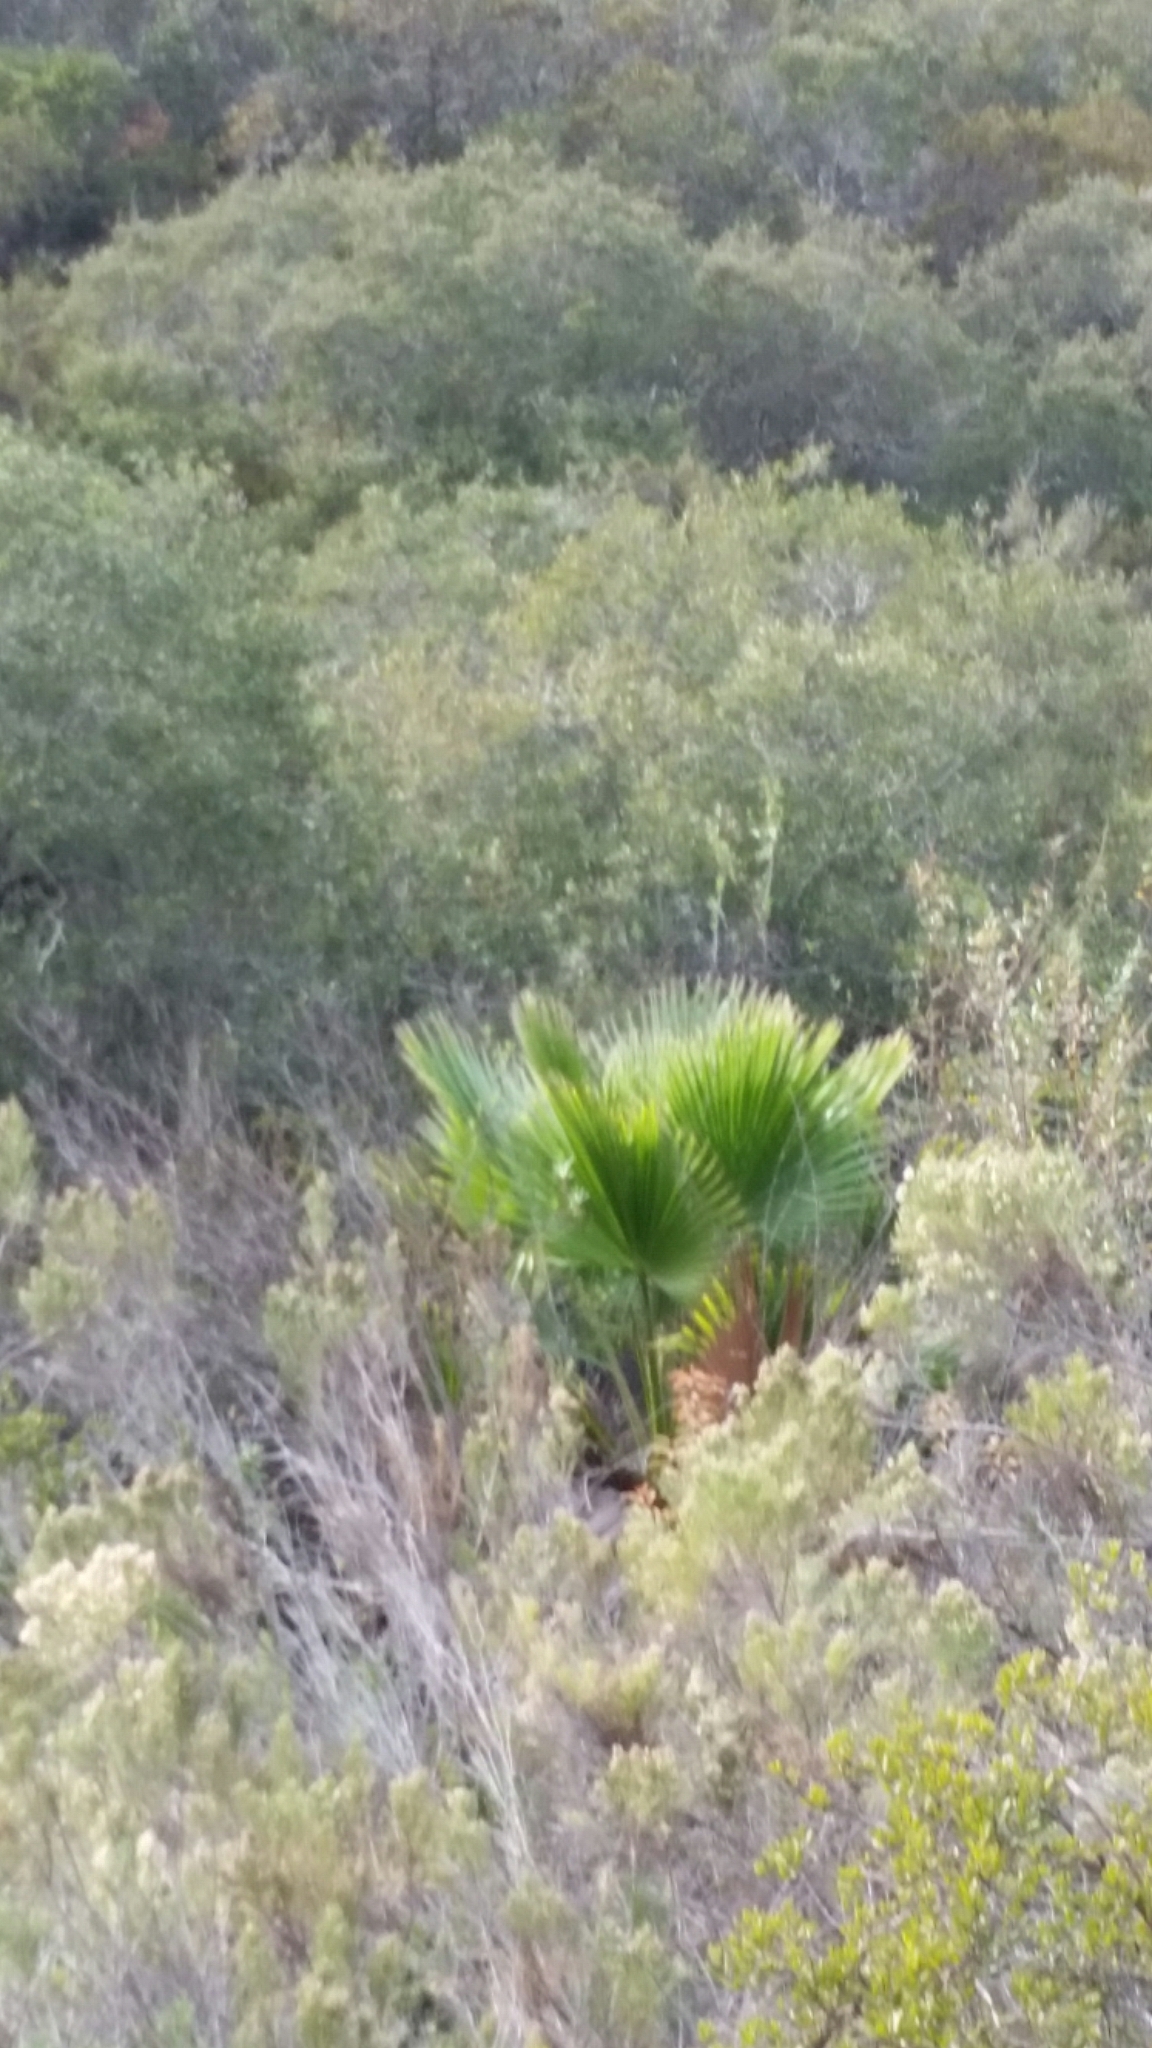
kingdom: Plantae
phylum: Tracheophyta
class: Liliopsida
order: Arecales
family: Arecaceae
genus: Washingtonia
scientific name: Washingtonia robusta
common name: Mexican fan palm
